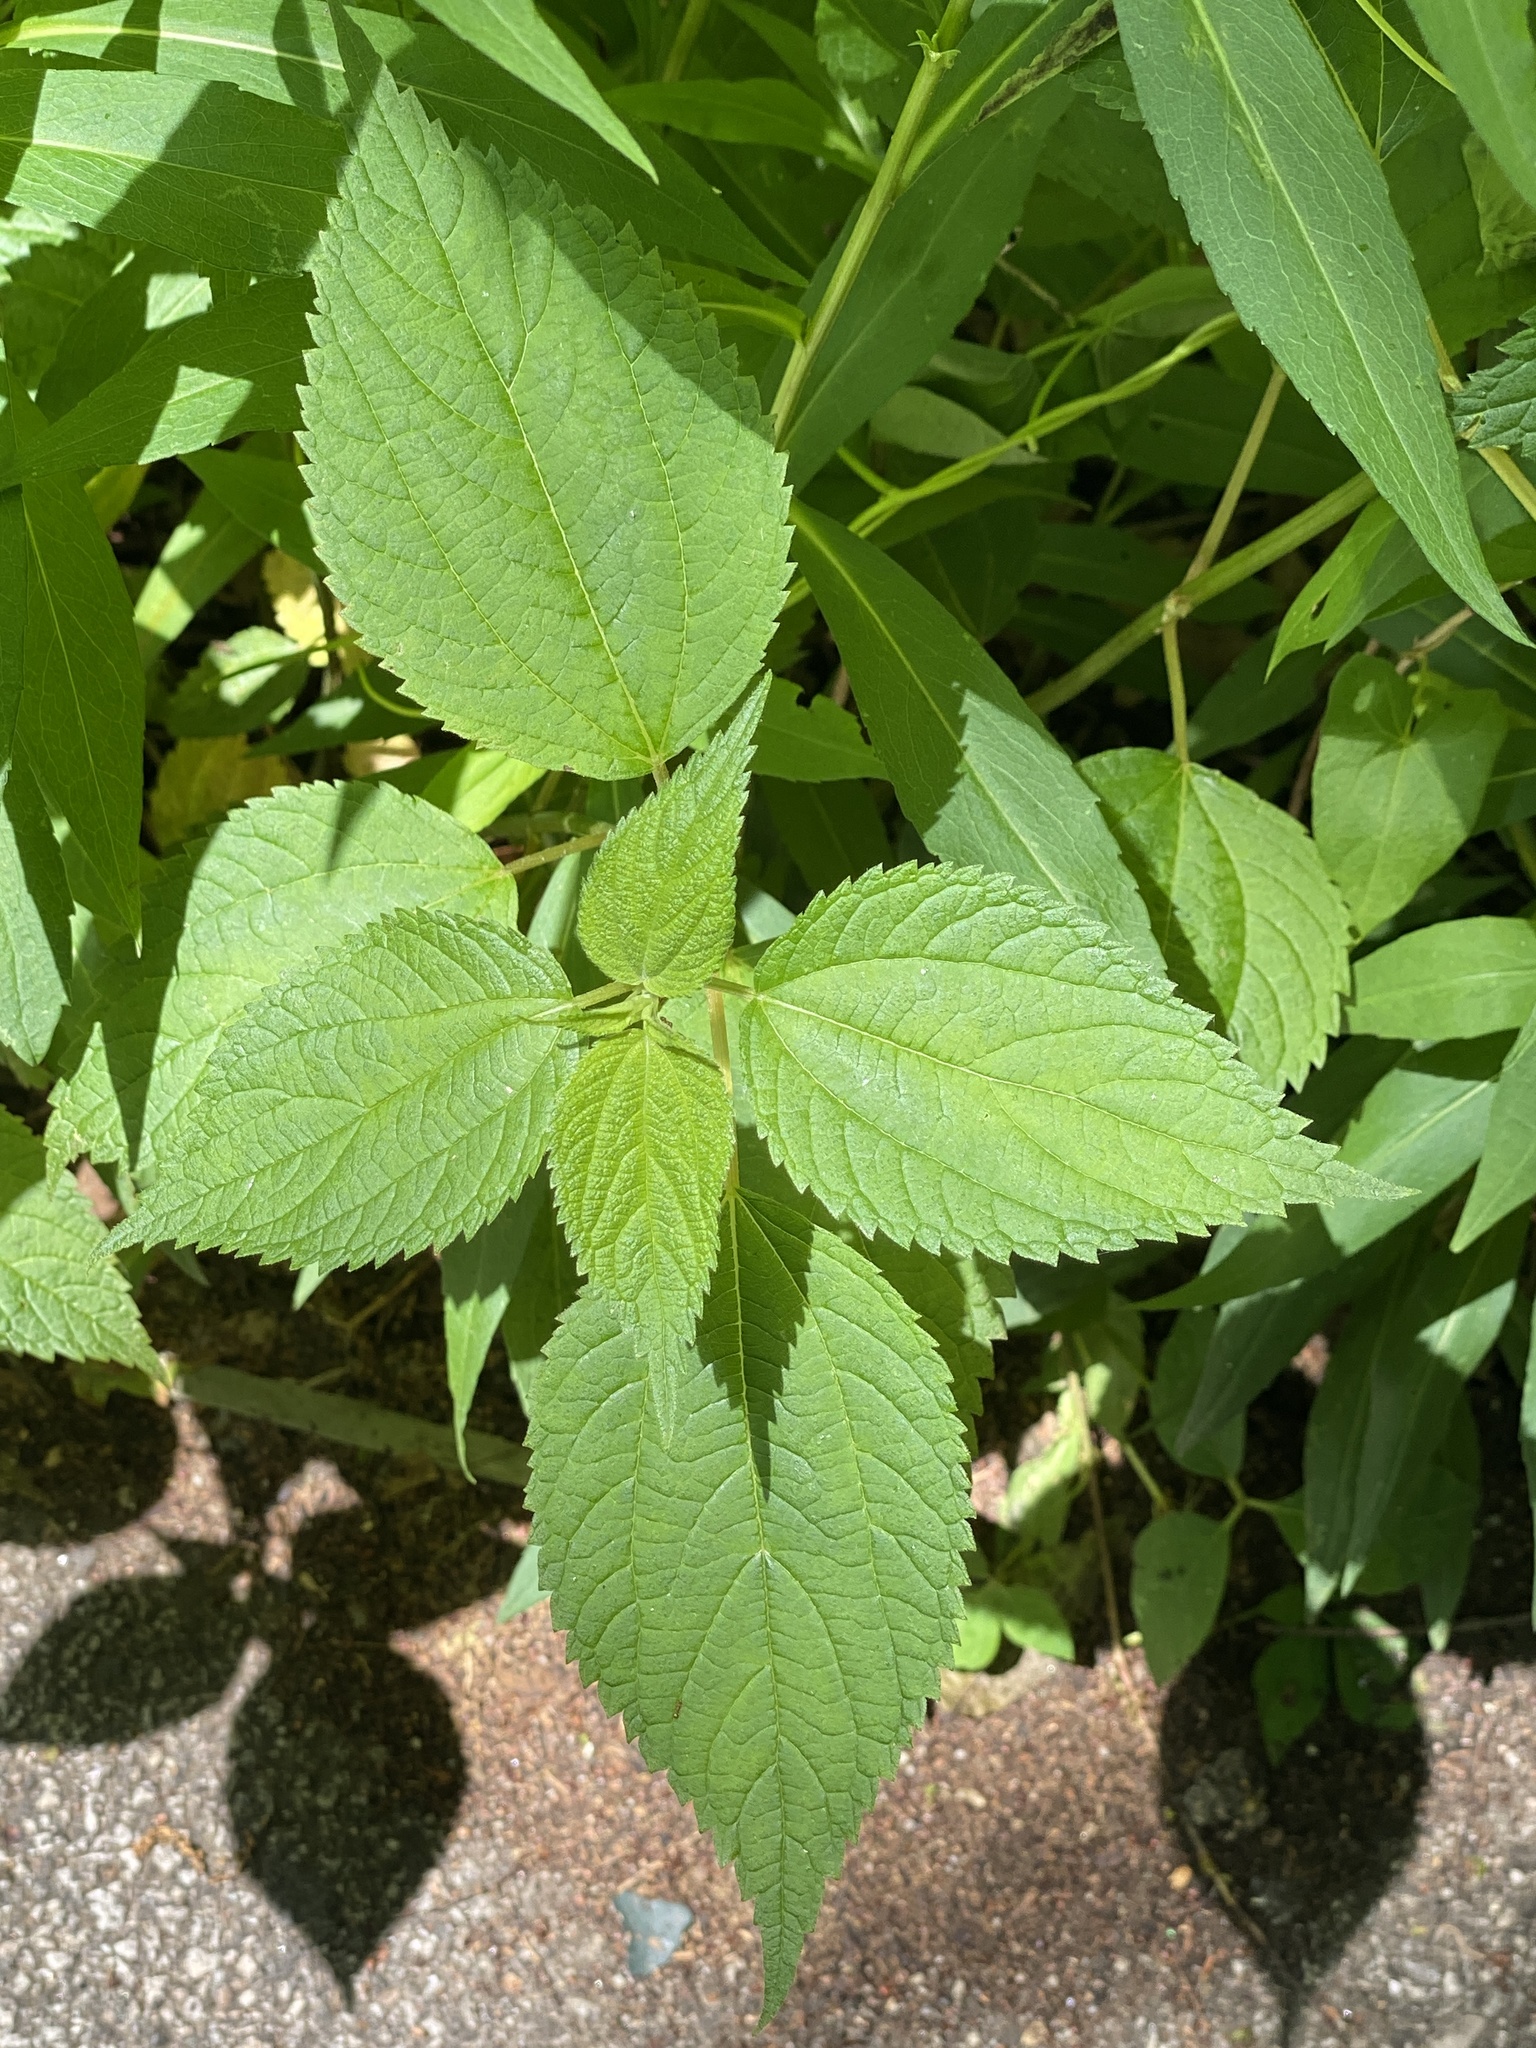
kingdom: Plantae
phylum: Tracheophyta
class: Magnoliopsida
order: Rosales
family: Urticaceae
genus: Boehmeria
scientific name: Boehmeria cylindrica
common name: Bog-hemp
